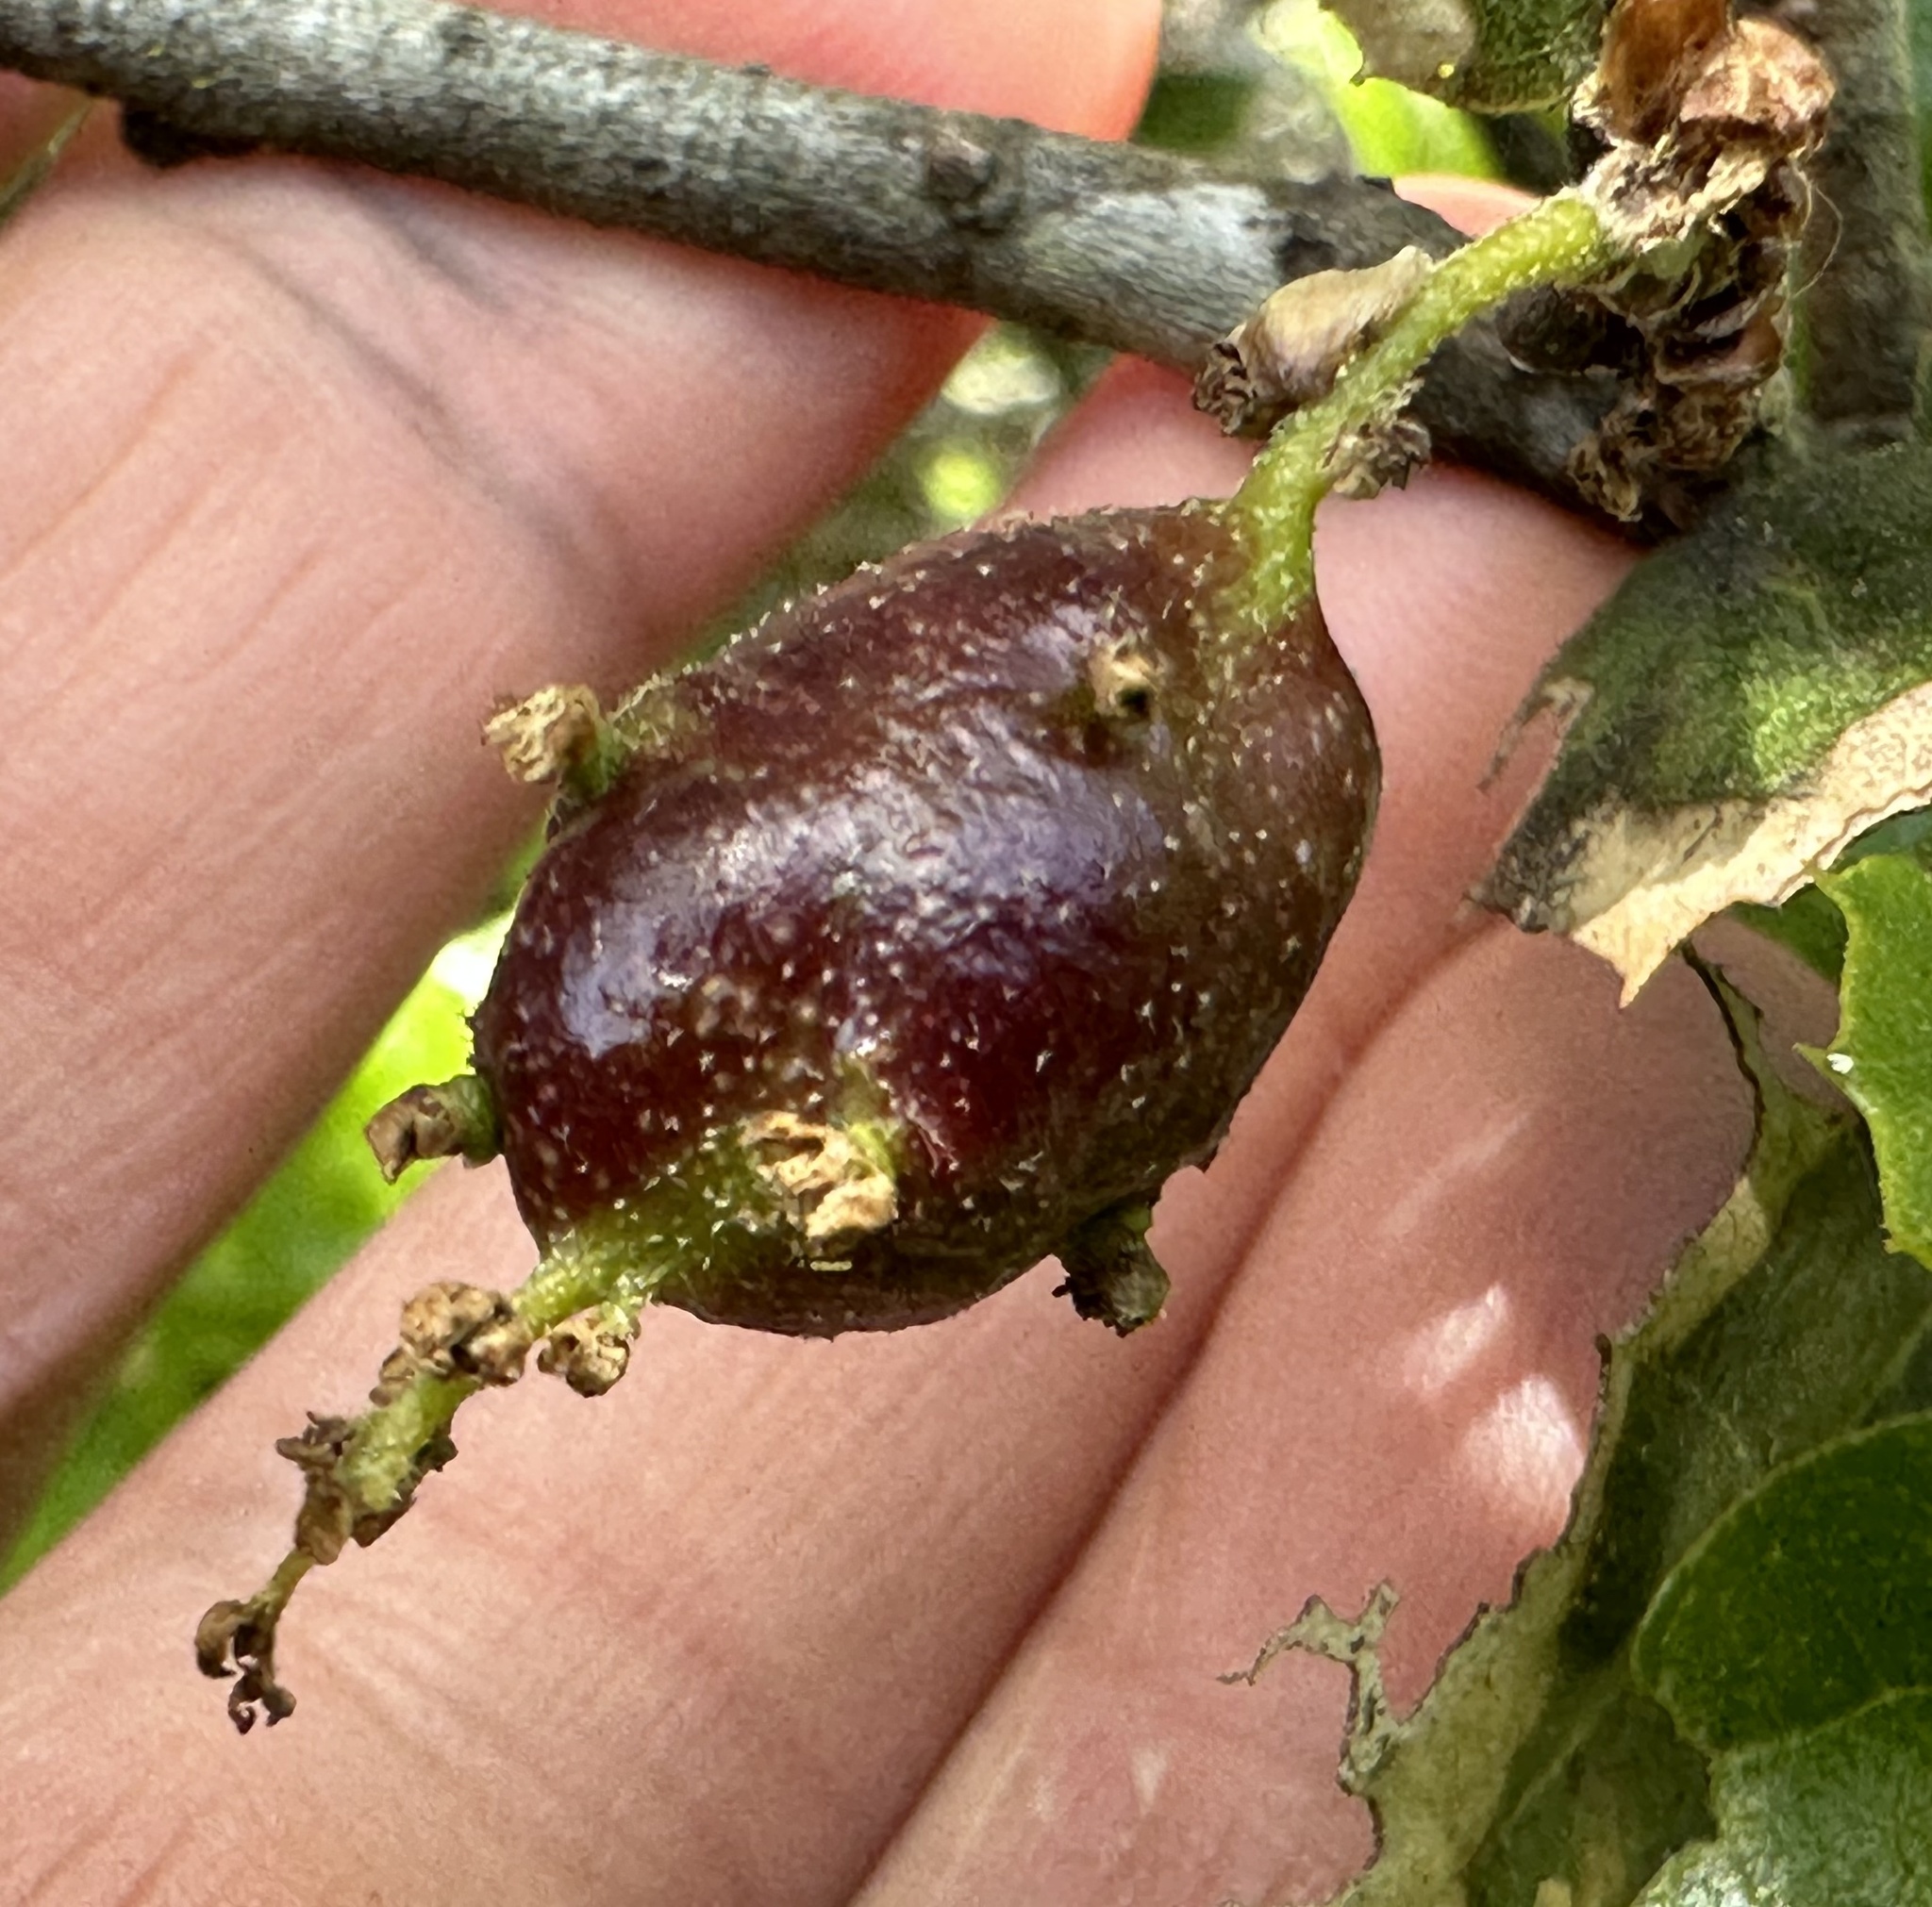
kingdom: Animalia
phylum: Arthropoda
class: Insecta
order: Hymenoptera
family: Cynipidae
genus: Callirhytis
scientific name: Callirhytis
